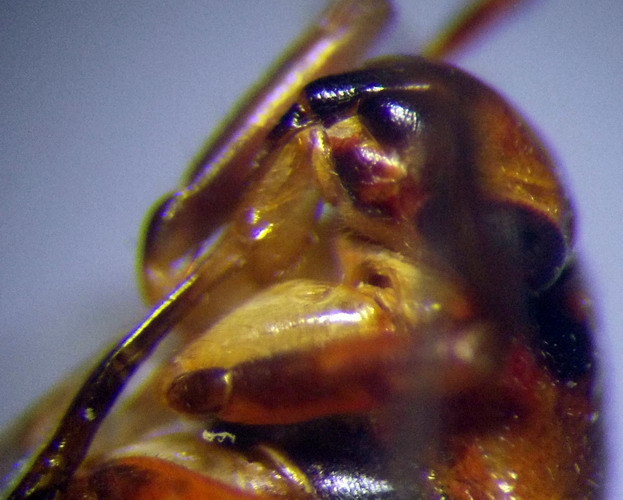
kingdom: Animalia
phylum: Arthropoda
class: Insecta
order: Hemiptera
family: Miridae
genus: Capsus
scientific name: Capsus cinctus
